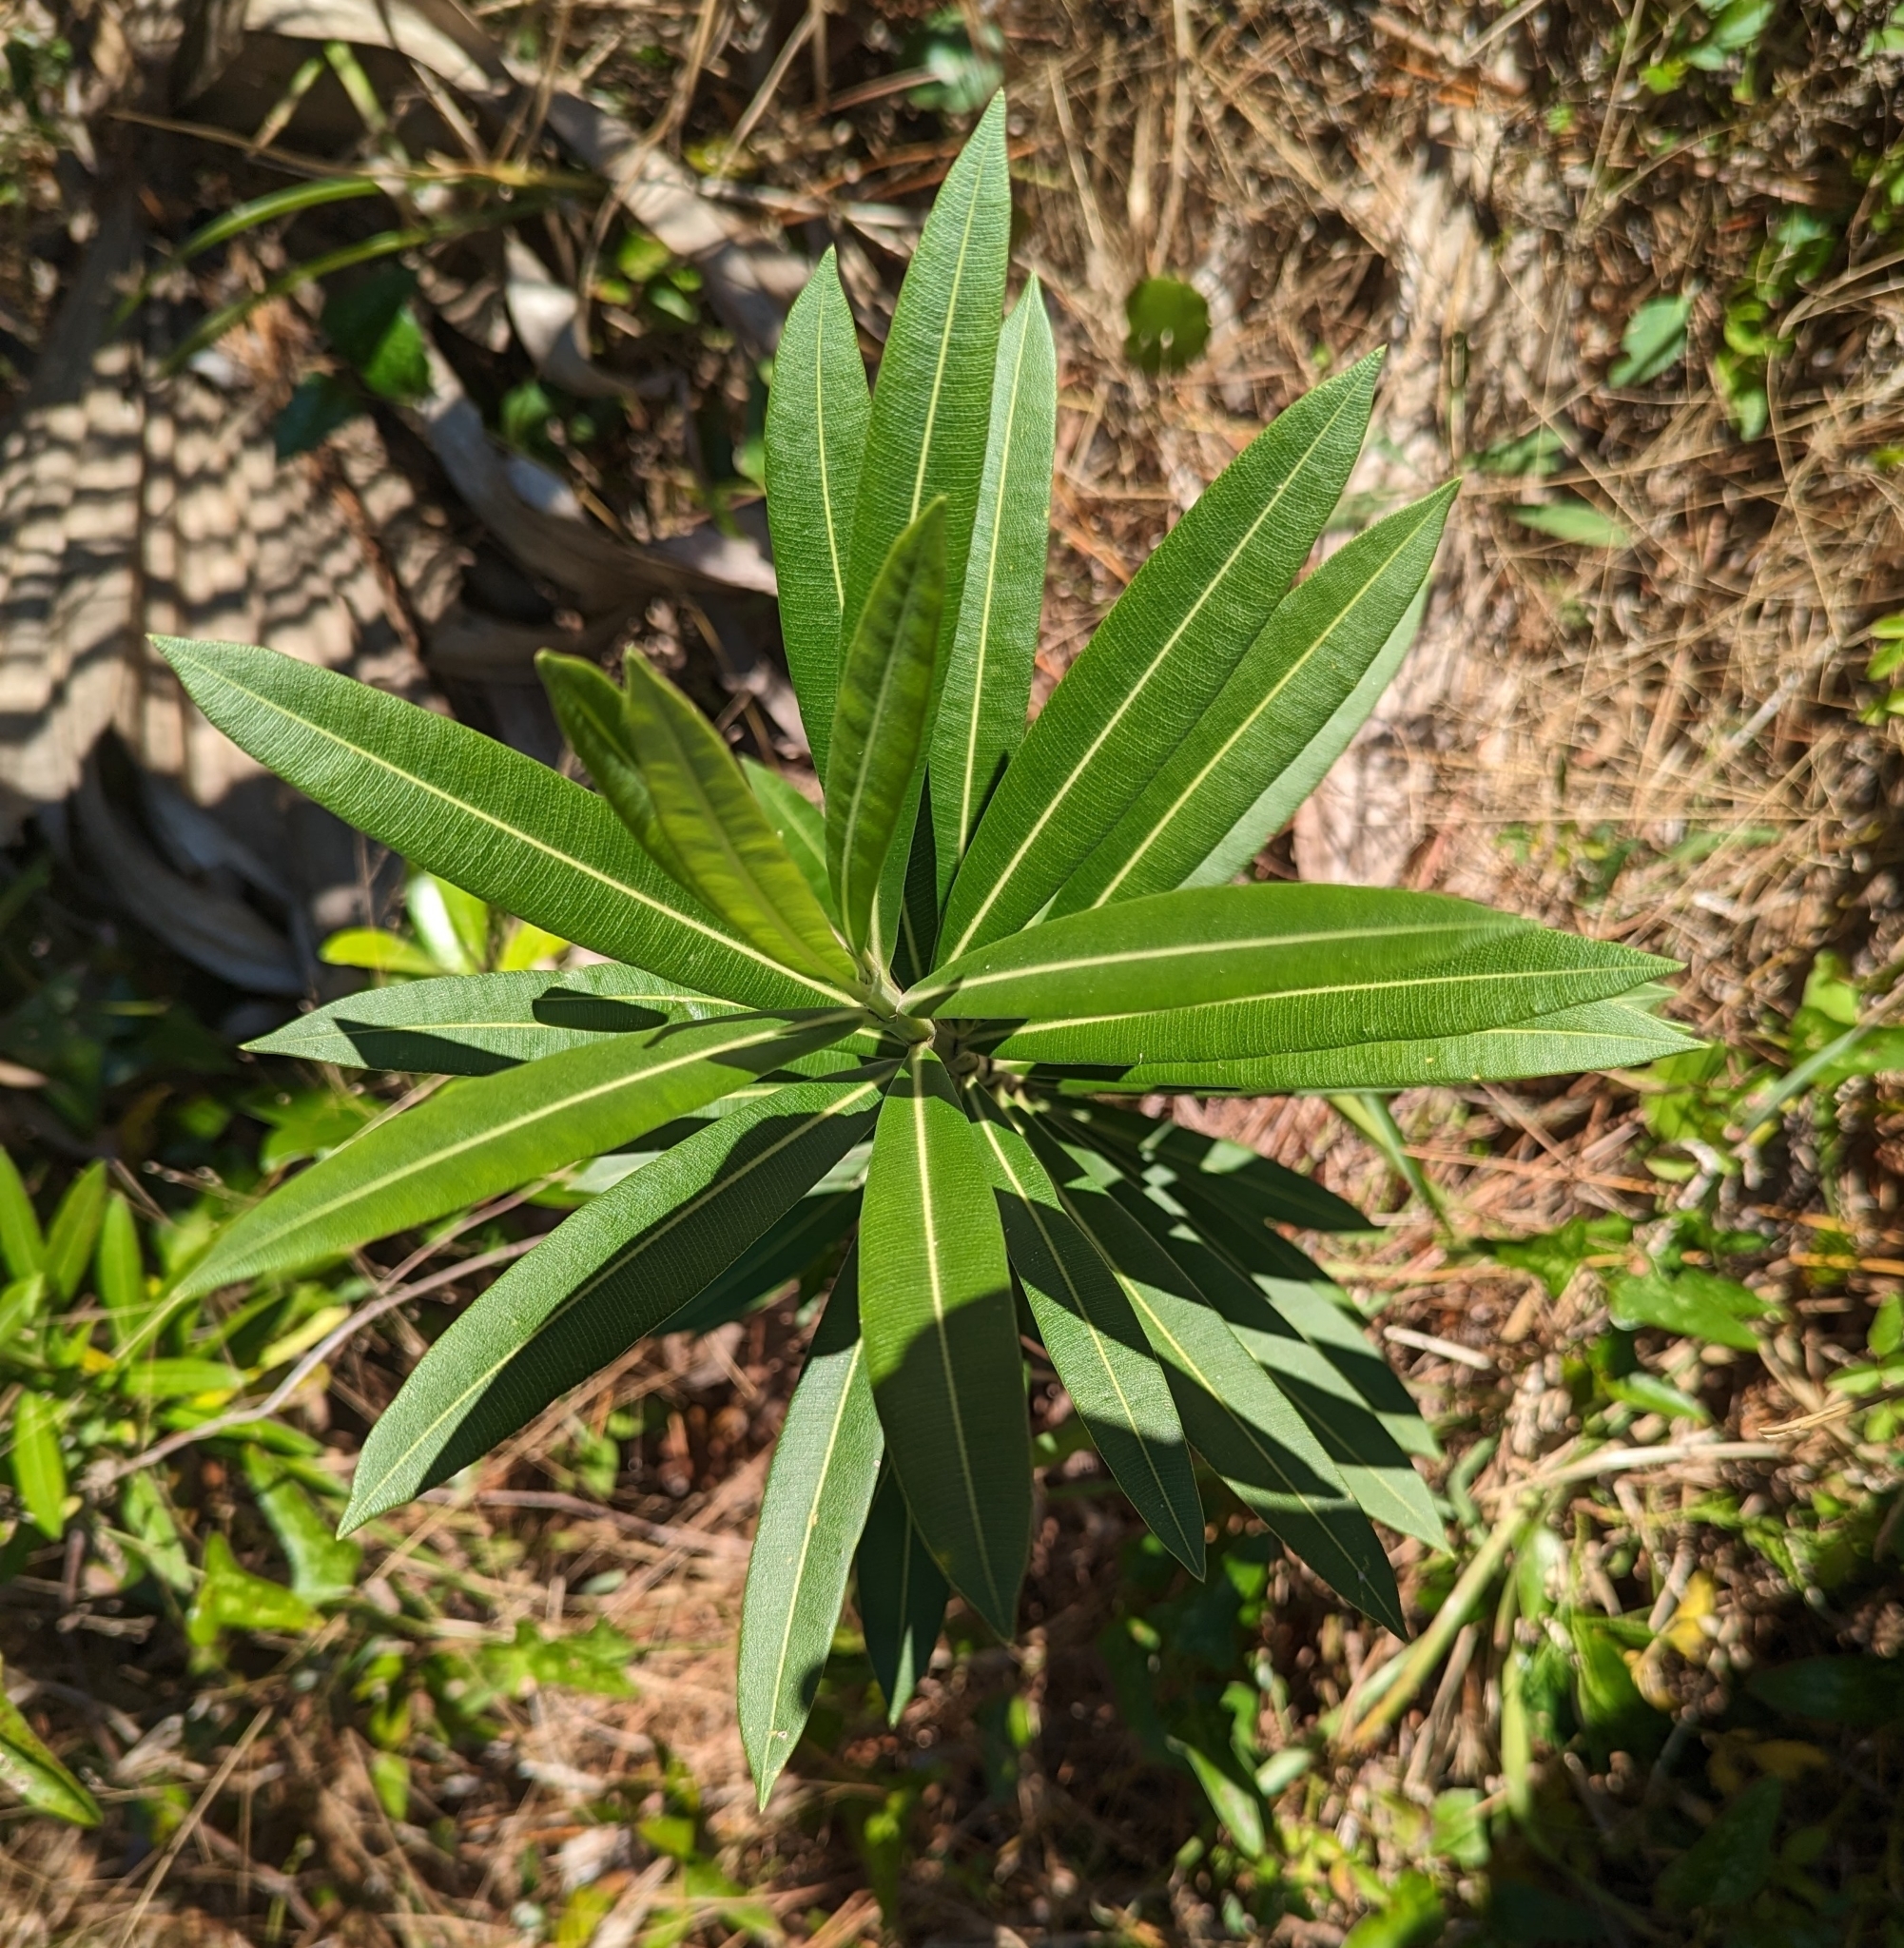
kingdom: Plantae
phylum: Tracheophyta
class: Magnoliopsida
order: Gentianales
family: Apocynaceae
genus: Nerium
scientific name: Nerium oleander
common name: Oleander
